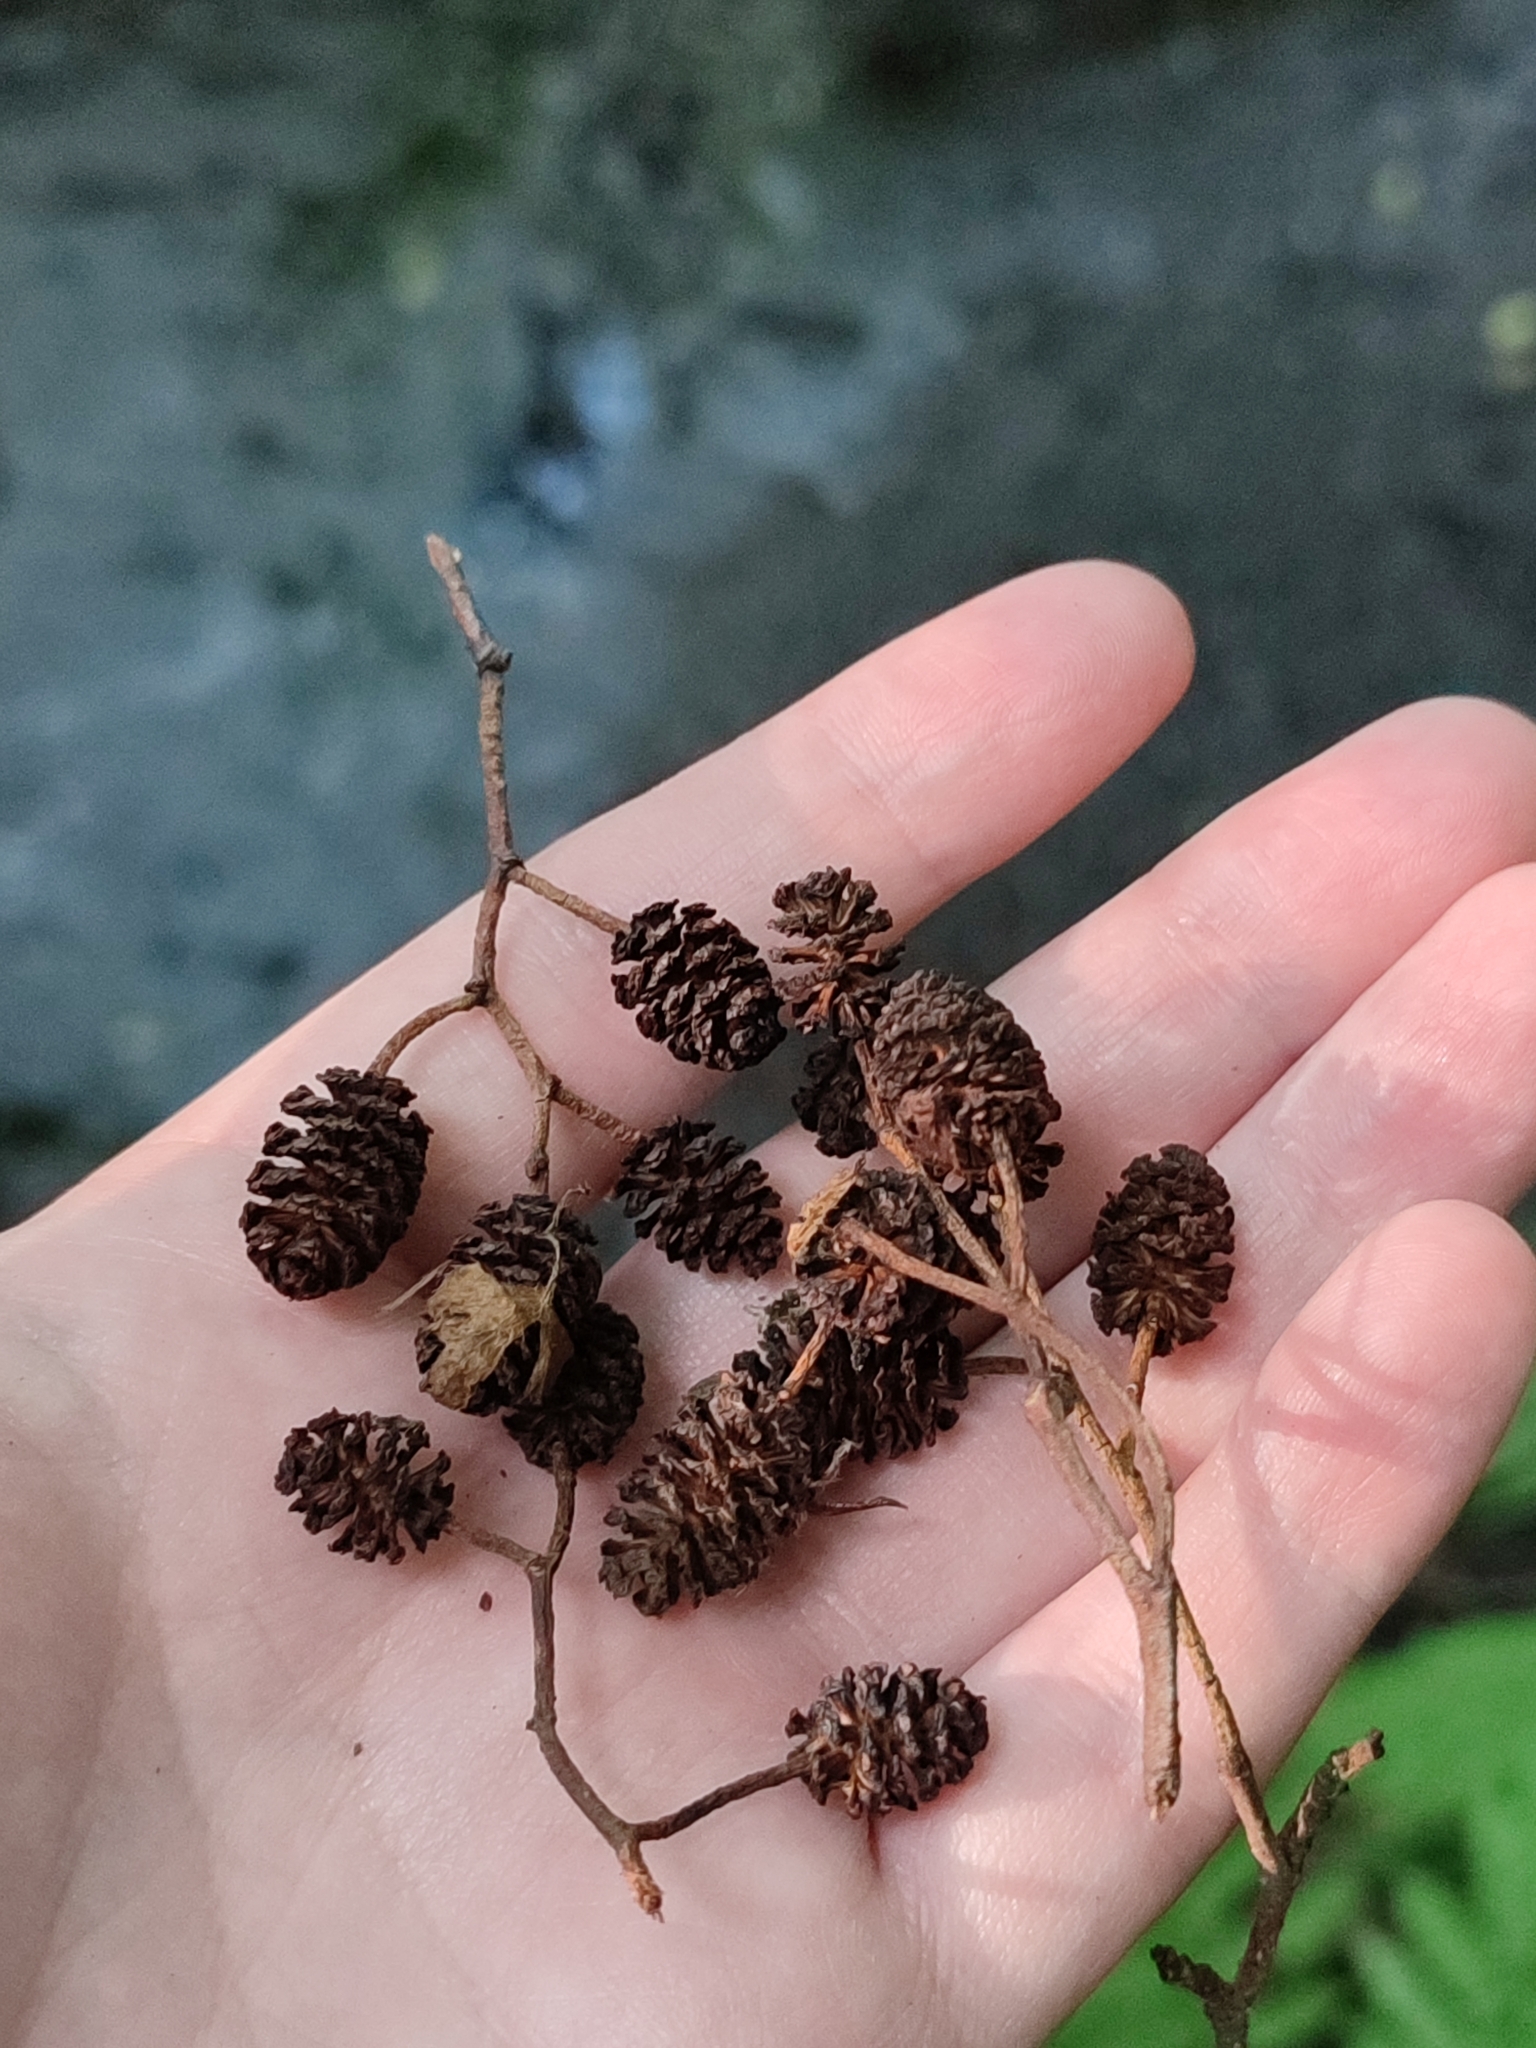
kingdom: Plantae
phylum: Tracheophyta
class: Magnoliopsida
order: Fagales
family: Betulaceae
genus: Alnus
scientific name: Alnus glutinosa
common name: Black alder
